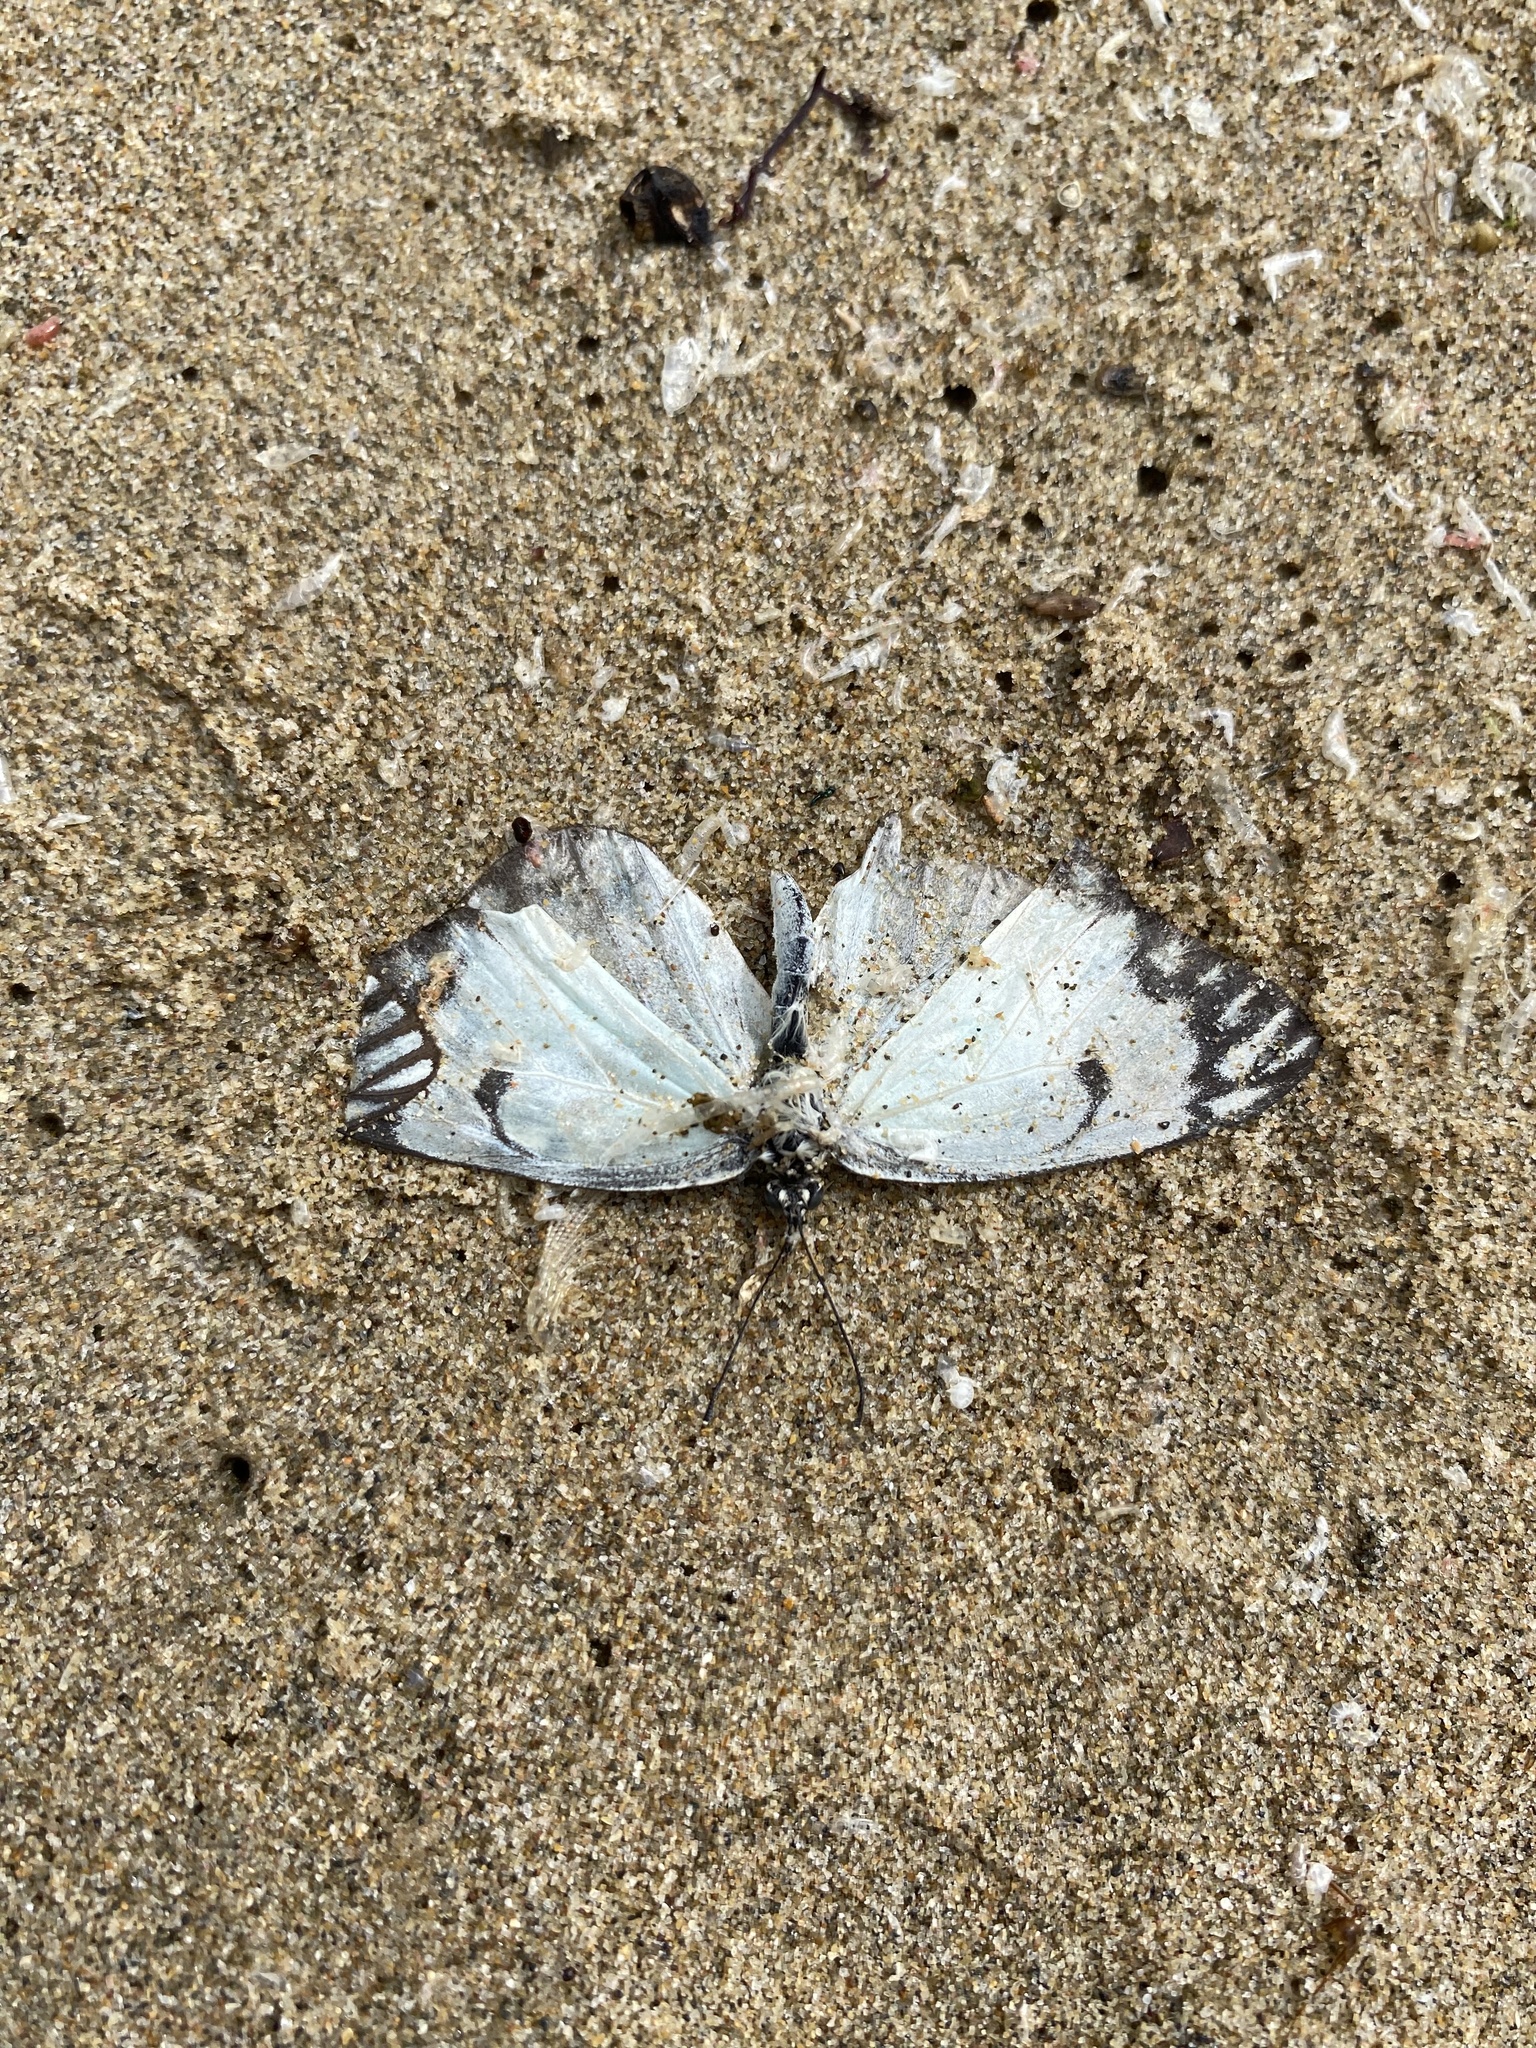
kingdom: Animalia
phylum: Arthropoda
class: Insecta
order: Lepidoptera
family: Pieridae
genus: Belenois
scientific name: Belenois aurota
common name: Brown-veined white
